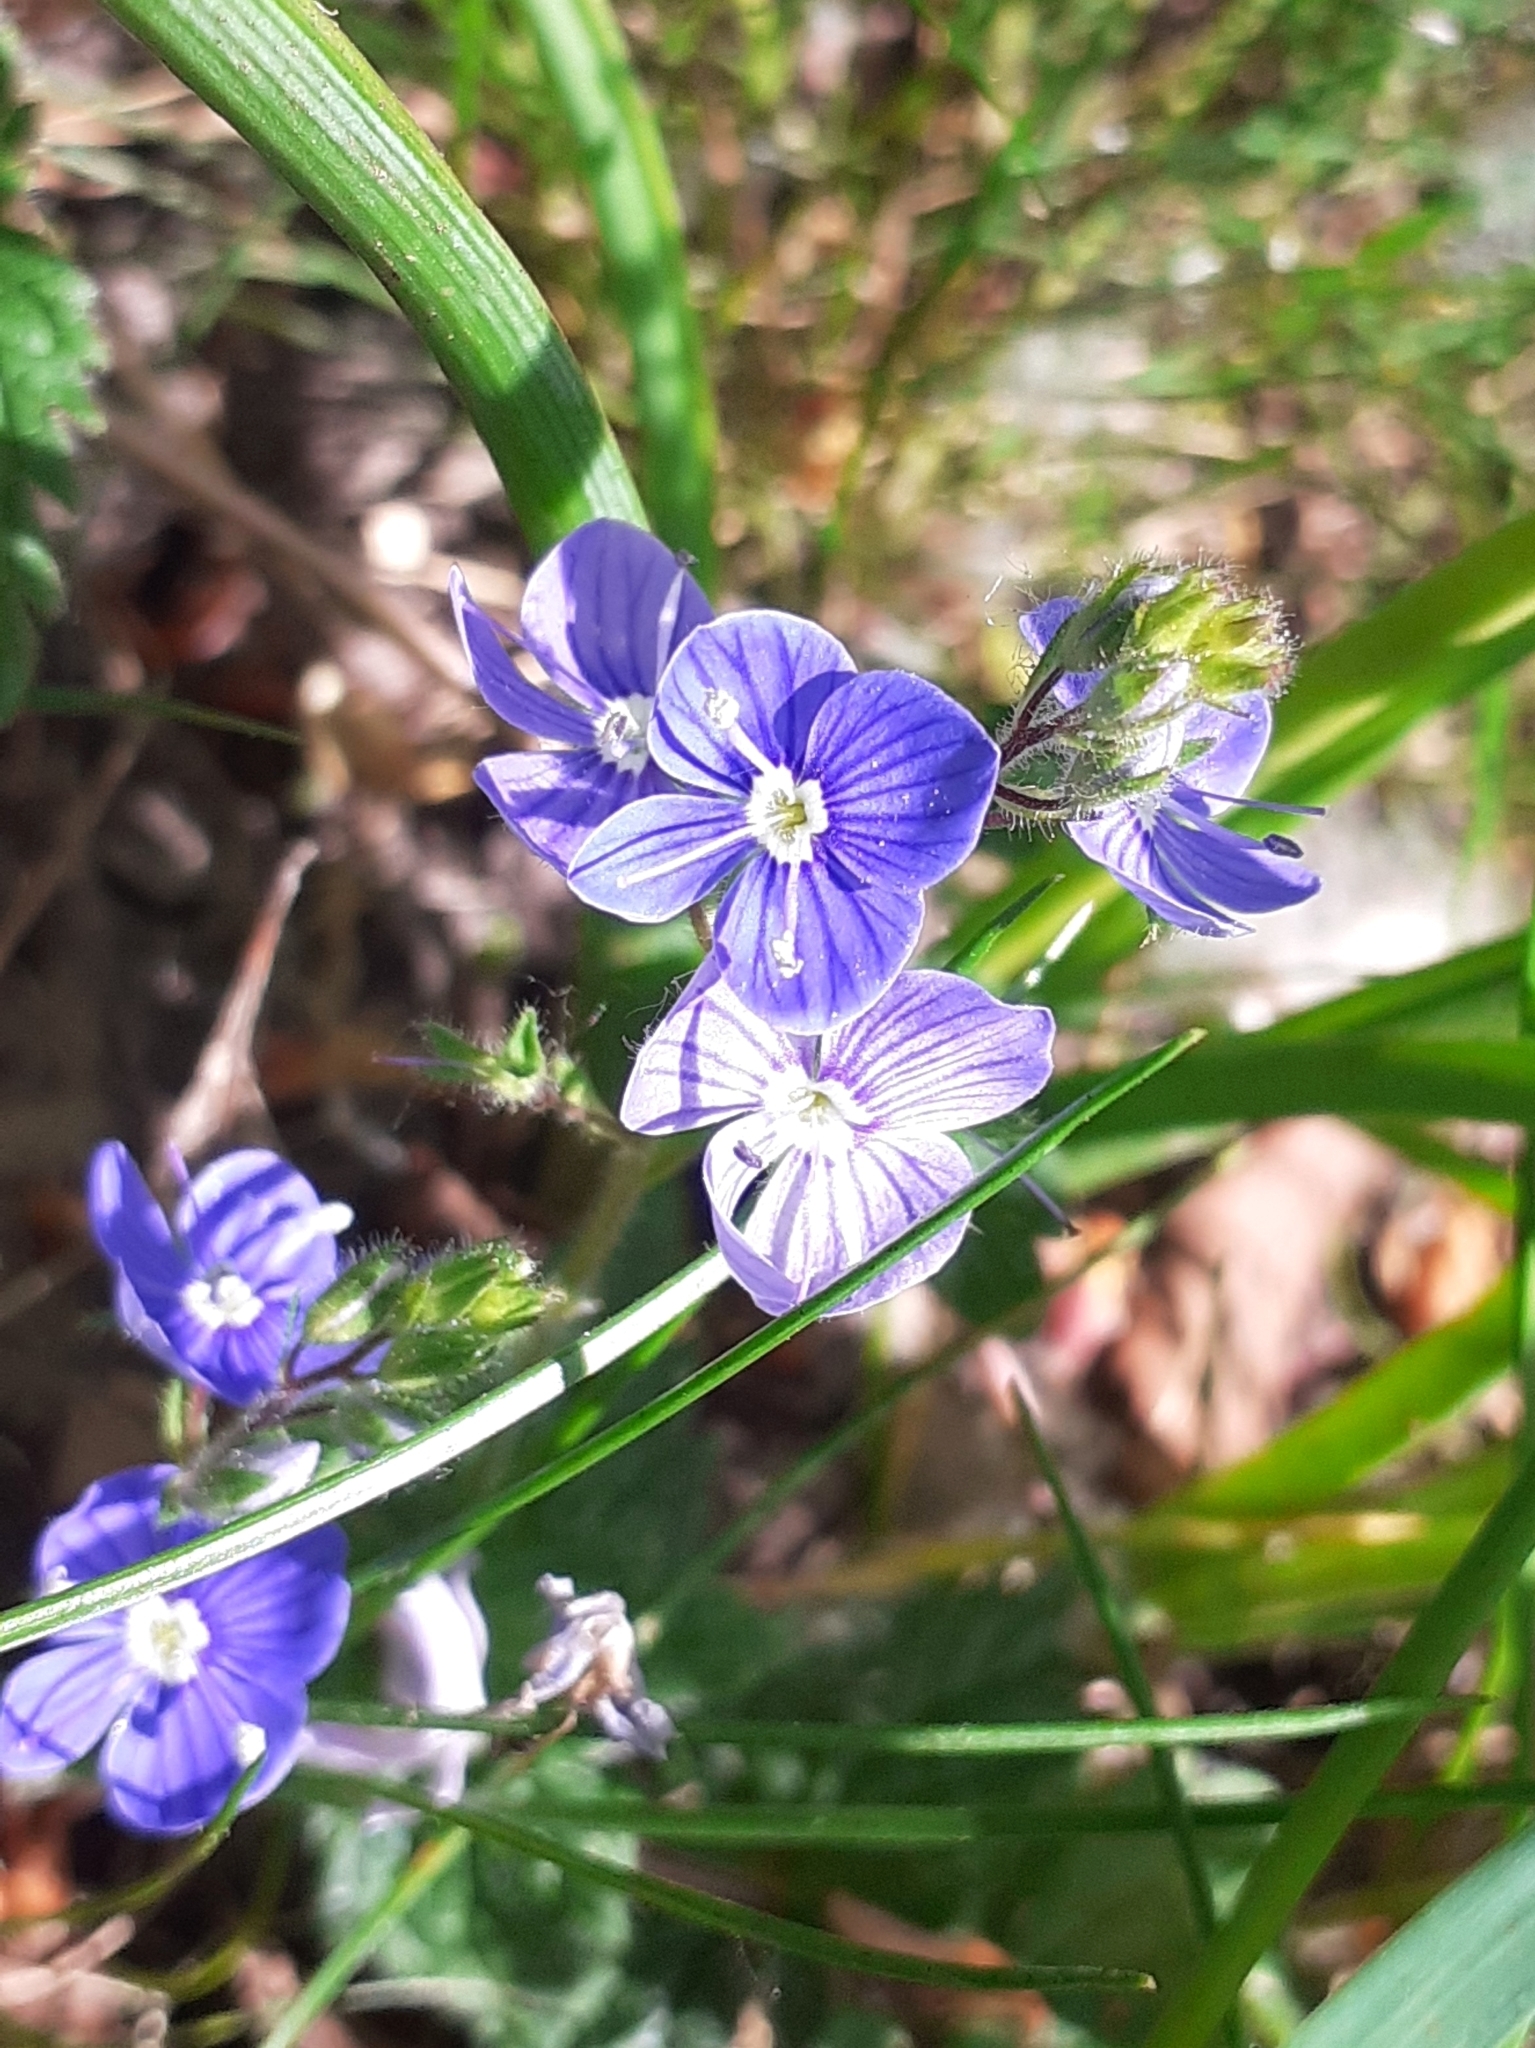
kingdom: Plantae
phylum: Tracheophyta
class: Magnoliopsida
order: Lamiales
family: Plantaginaceae
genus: Veronica
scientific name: Veronica chamaedrys
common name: Germander speedwell
